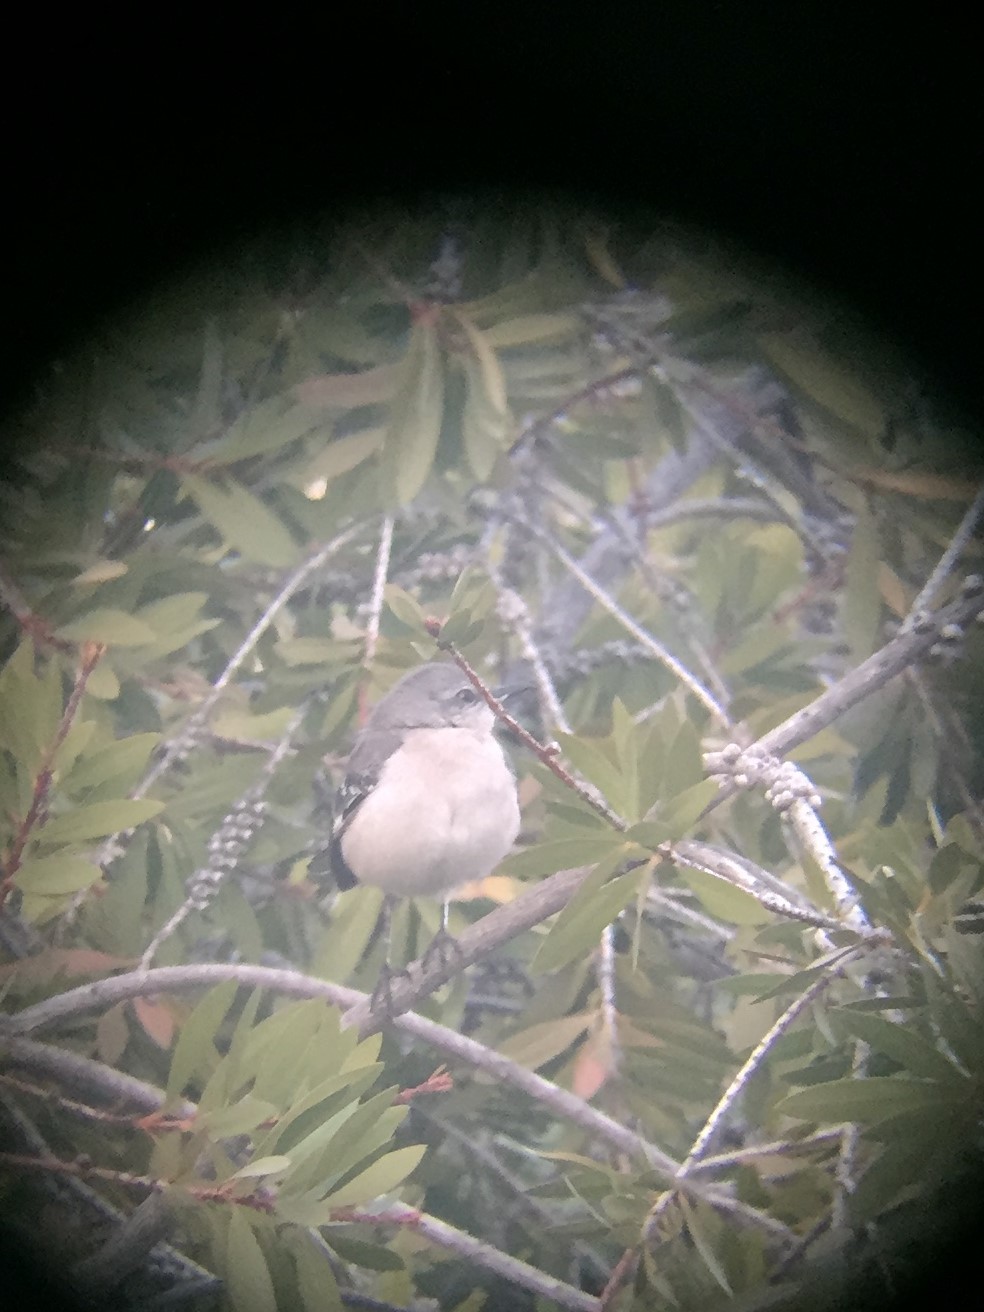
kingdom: Animalia
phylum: Chordata
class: Aves
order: Passeriformes
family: Mimidae
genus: Mimus
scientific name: Mimus polyglottos
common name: Northern mockingbird
